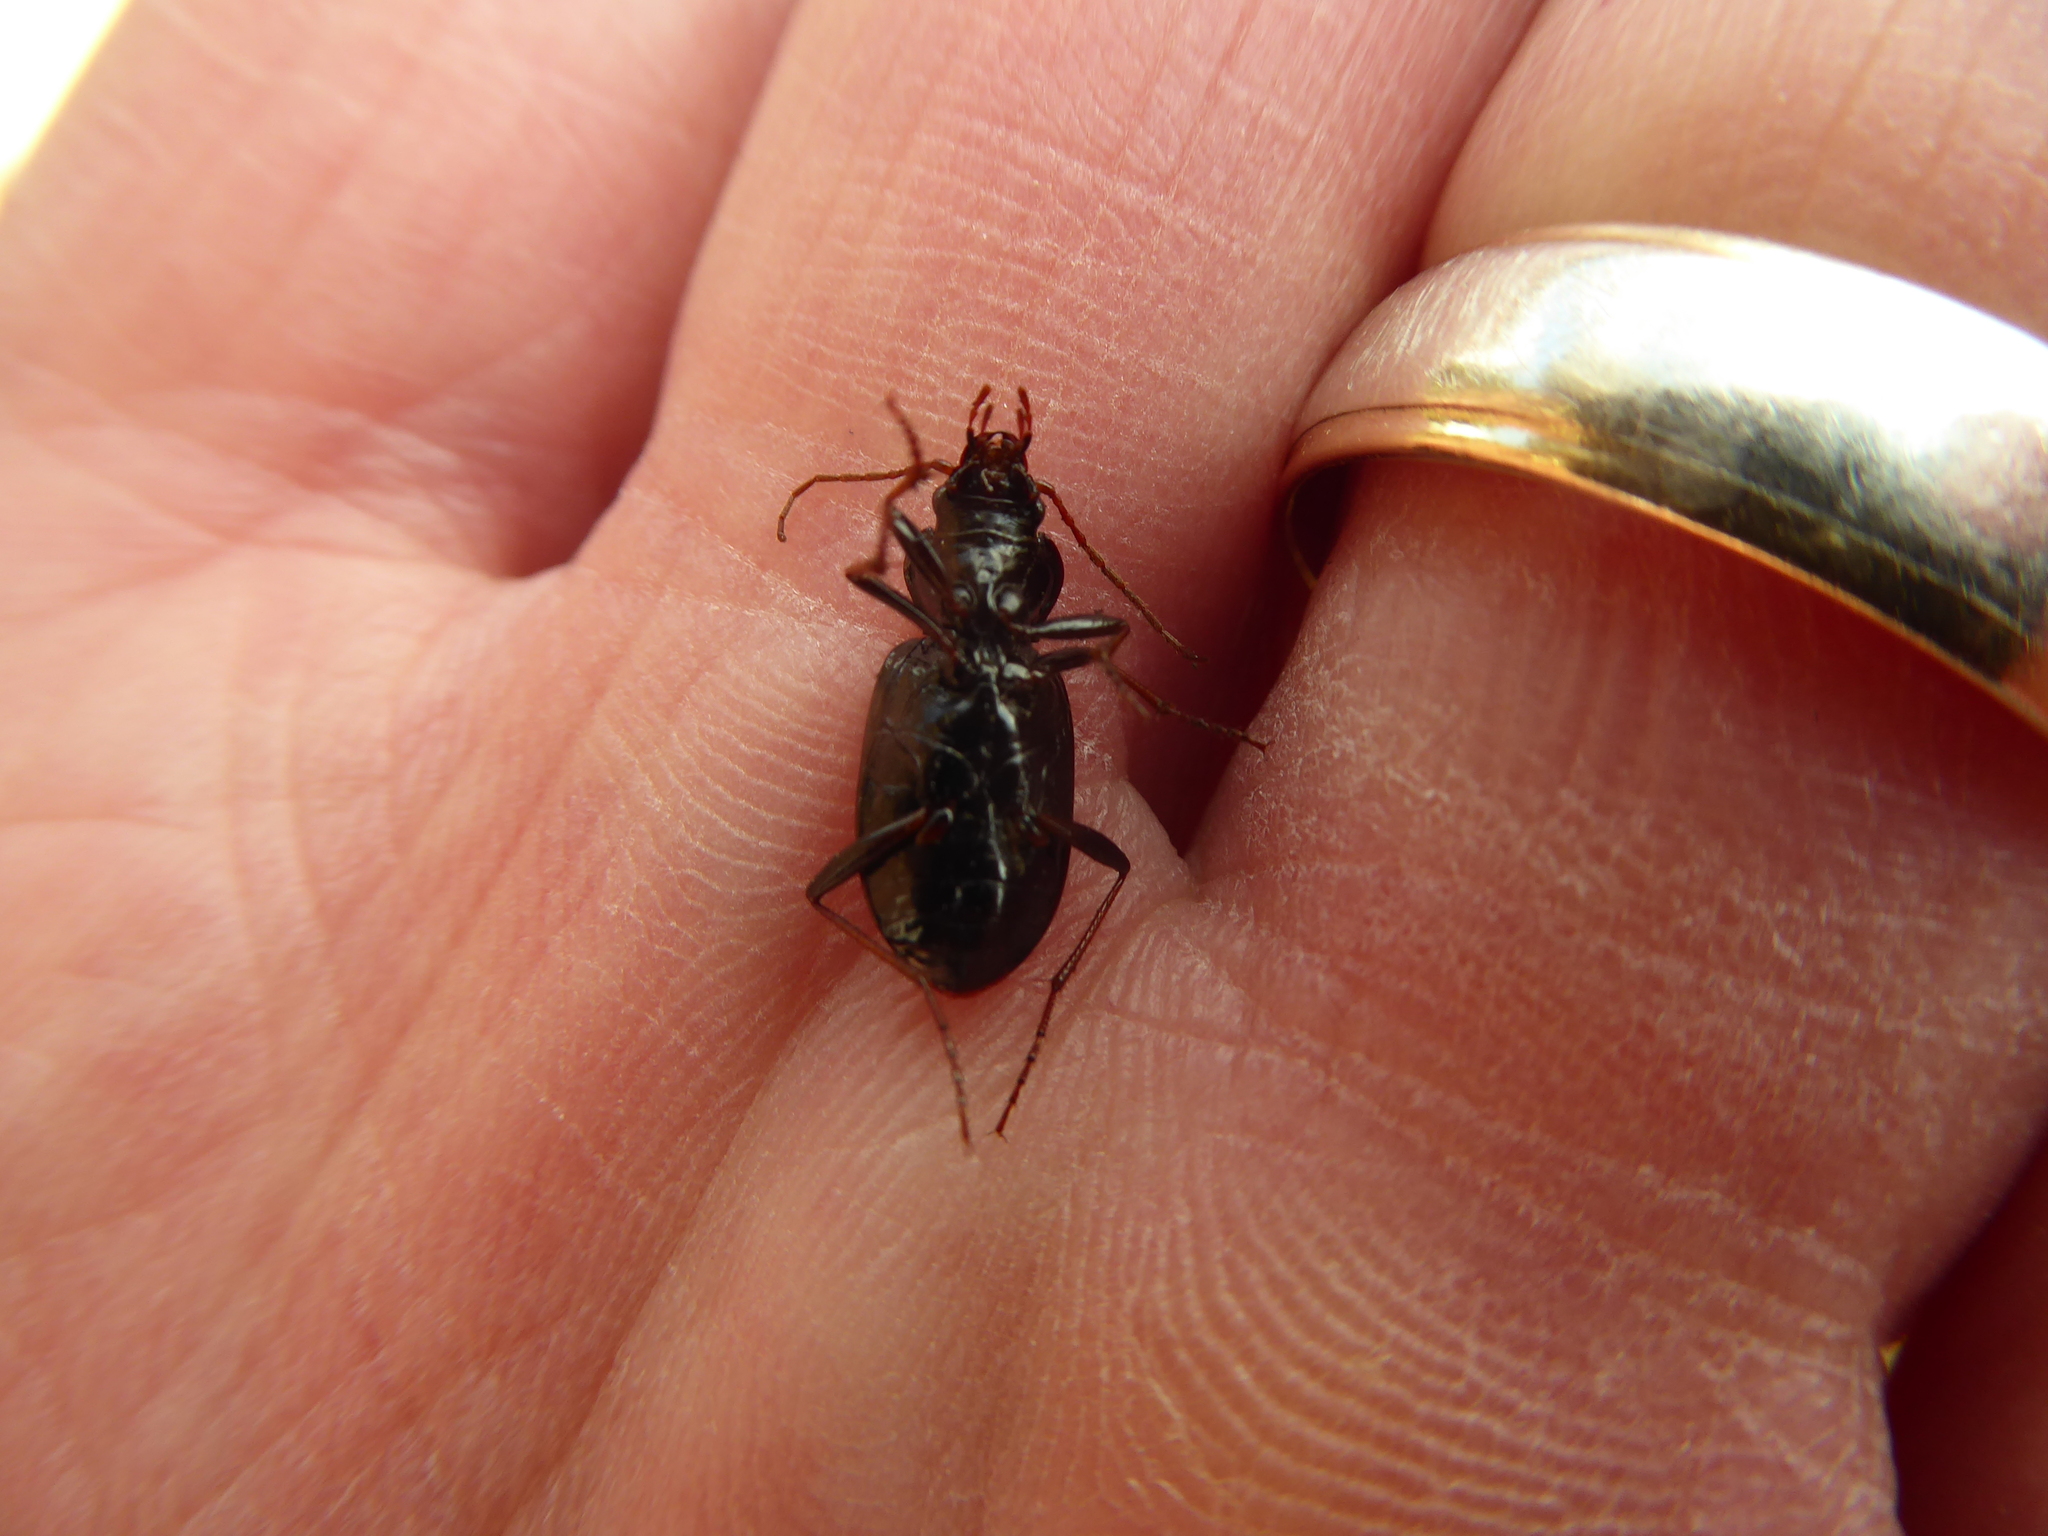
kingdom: Animalia
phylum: Arthropoda
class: Insecta
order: Coleoptera
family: Carabidae
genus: Nebria
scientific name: Nebria salina
